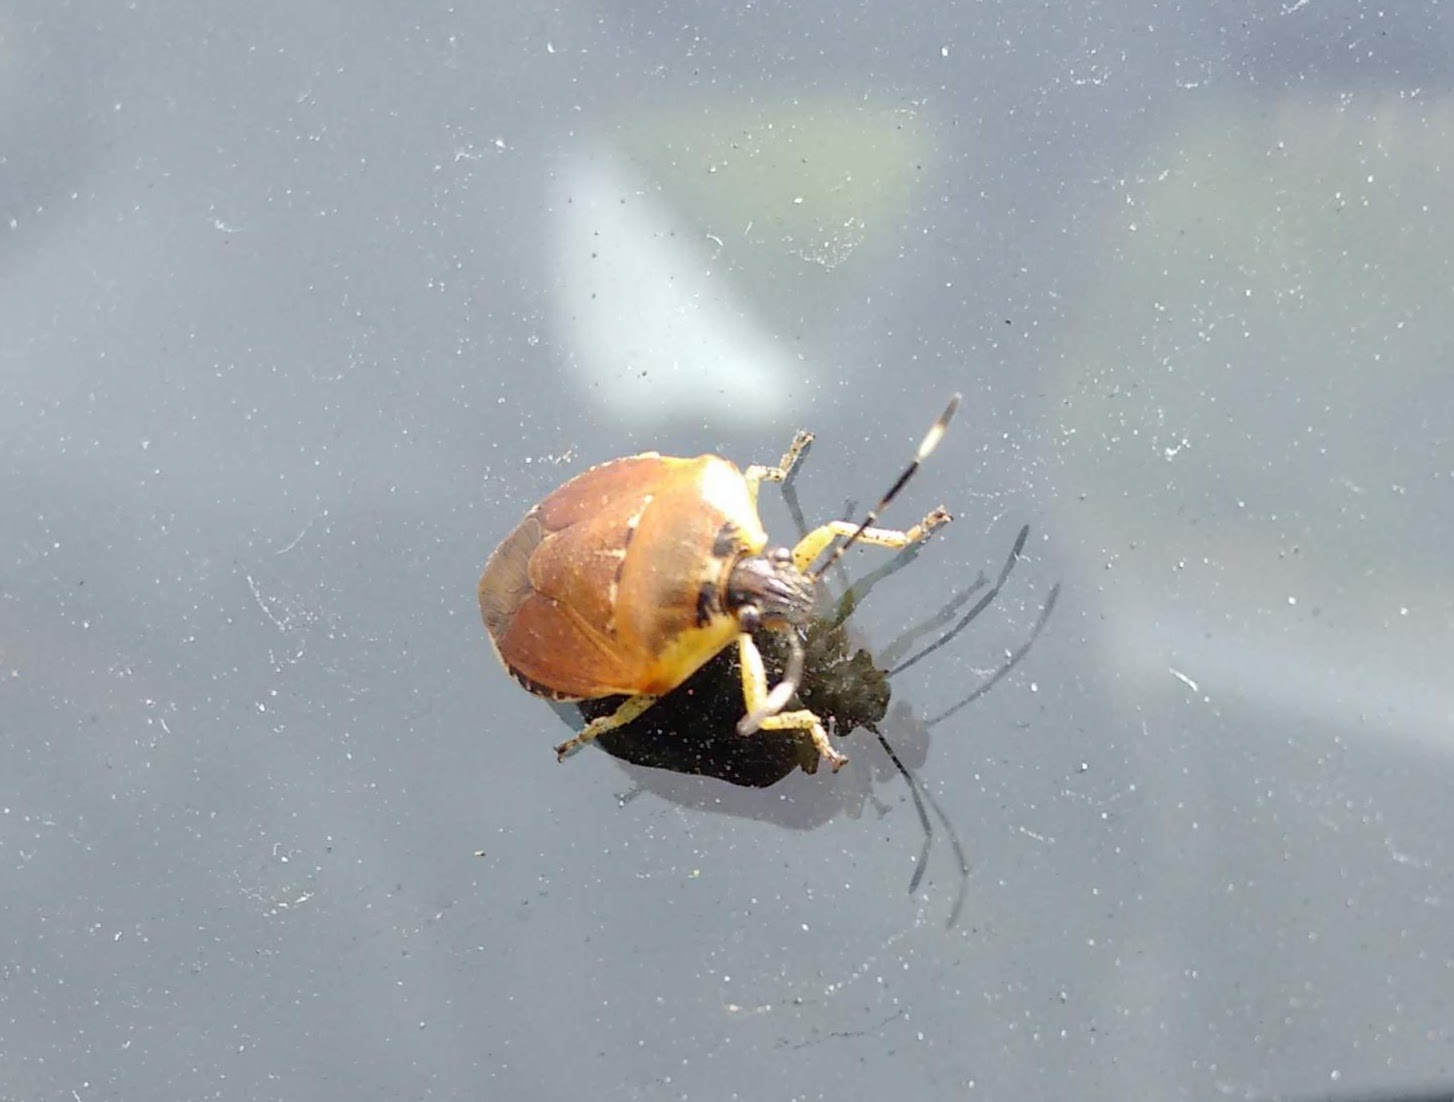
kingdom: Animalia
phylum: Arthropoda
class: Insecta
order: Hemiptera
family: Pentatomidae
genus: Monteithiella
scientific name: Monteithiella
